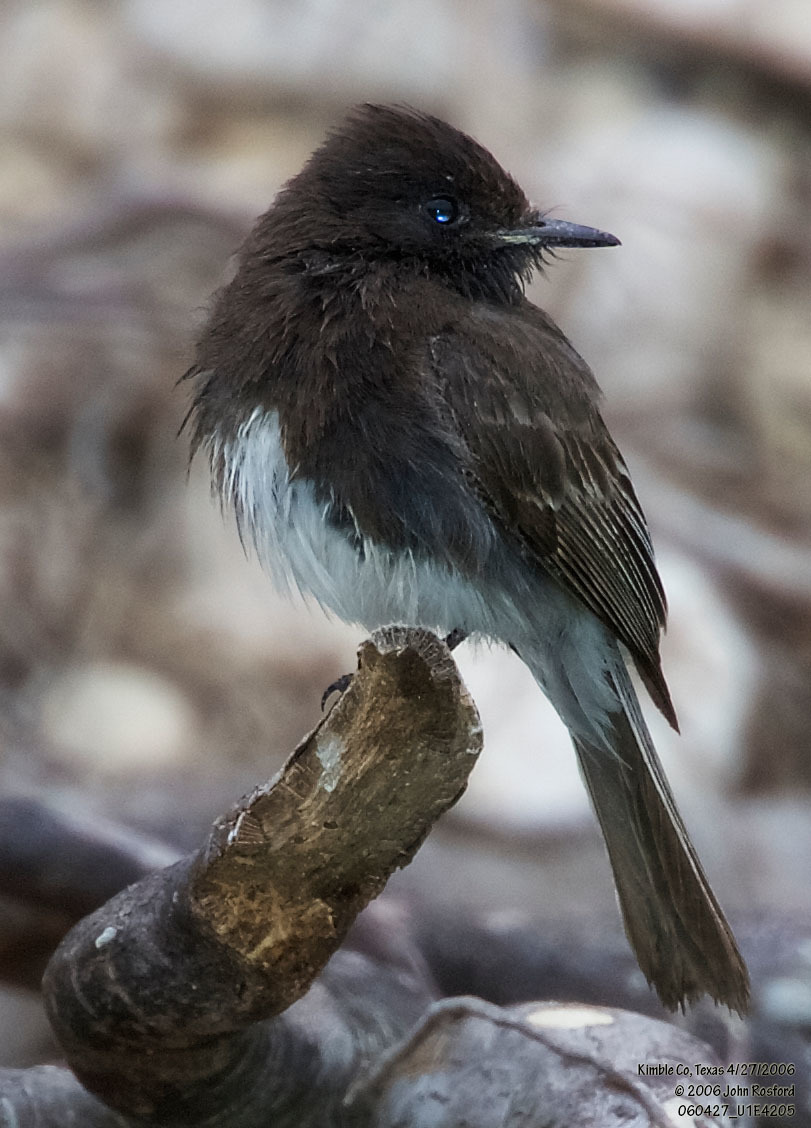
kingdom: Animalia
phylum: Chordata
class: Aves
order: Passeriformes
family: Tyrannidae
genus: Sayornis
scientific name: Sayornis nigricans
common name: Black phoebe
